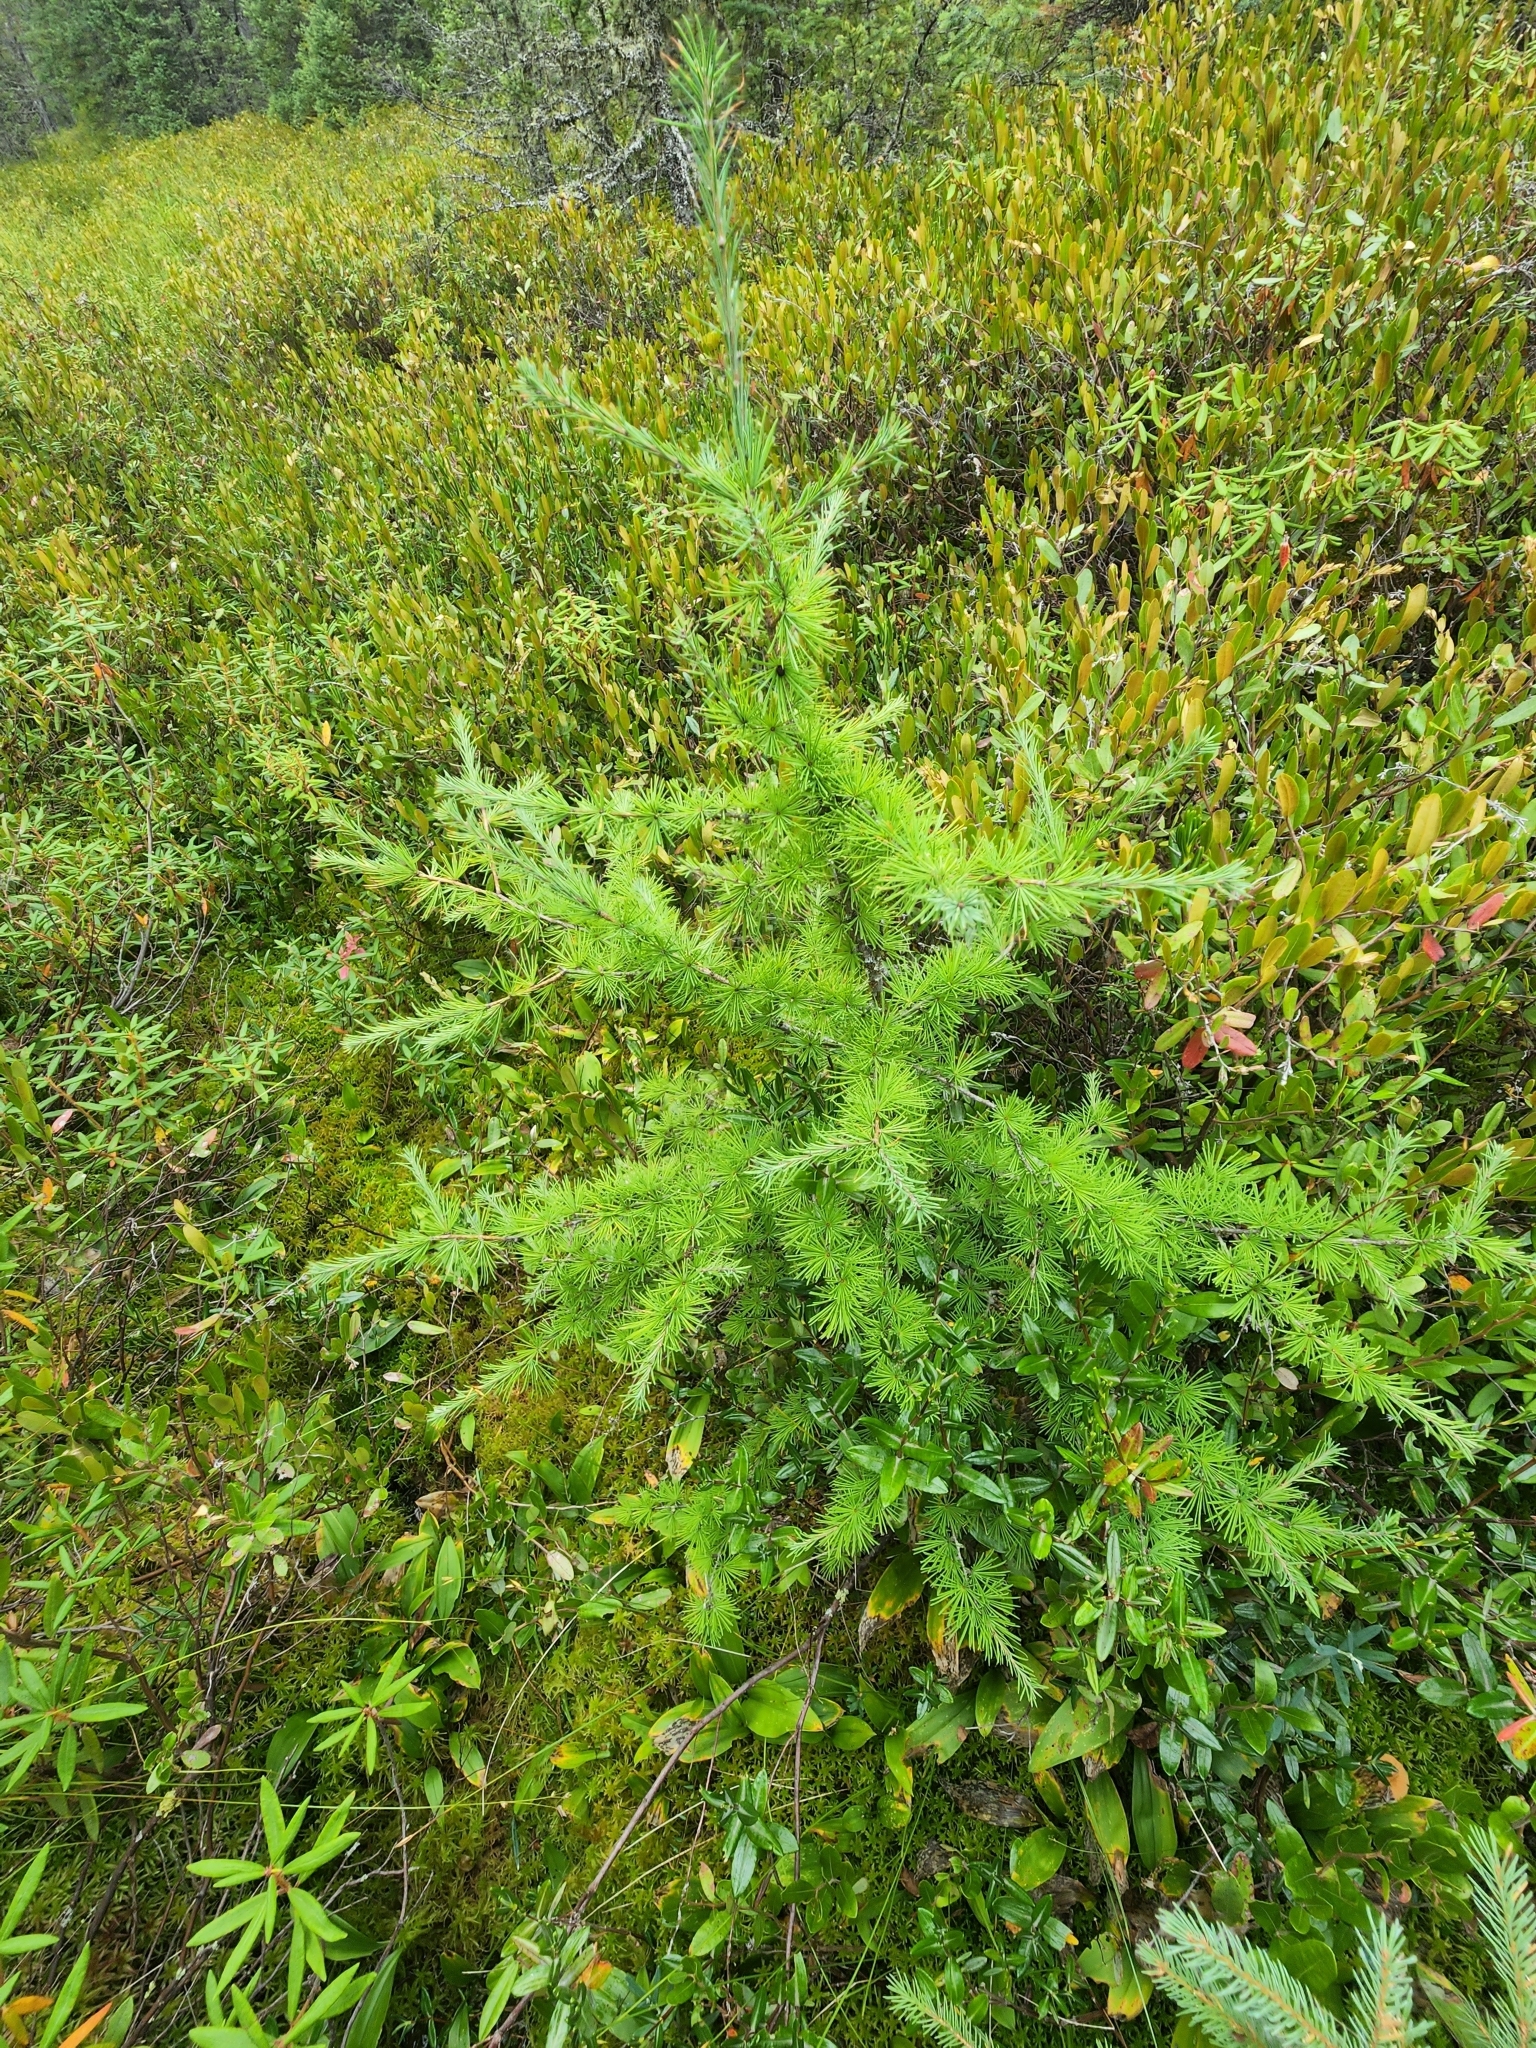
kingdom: Plantae
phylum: Tracheophyta
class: Pinopsida
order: Pinales
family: Pinaceae
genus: Larix
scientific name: Larix laricina
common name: American larch
